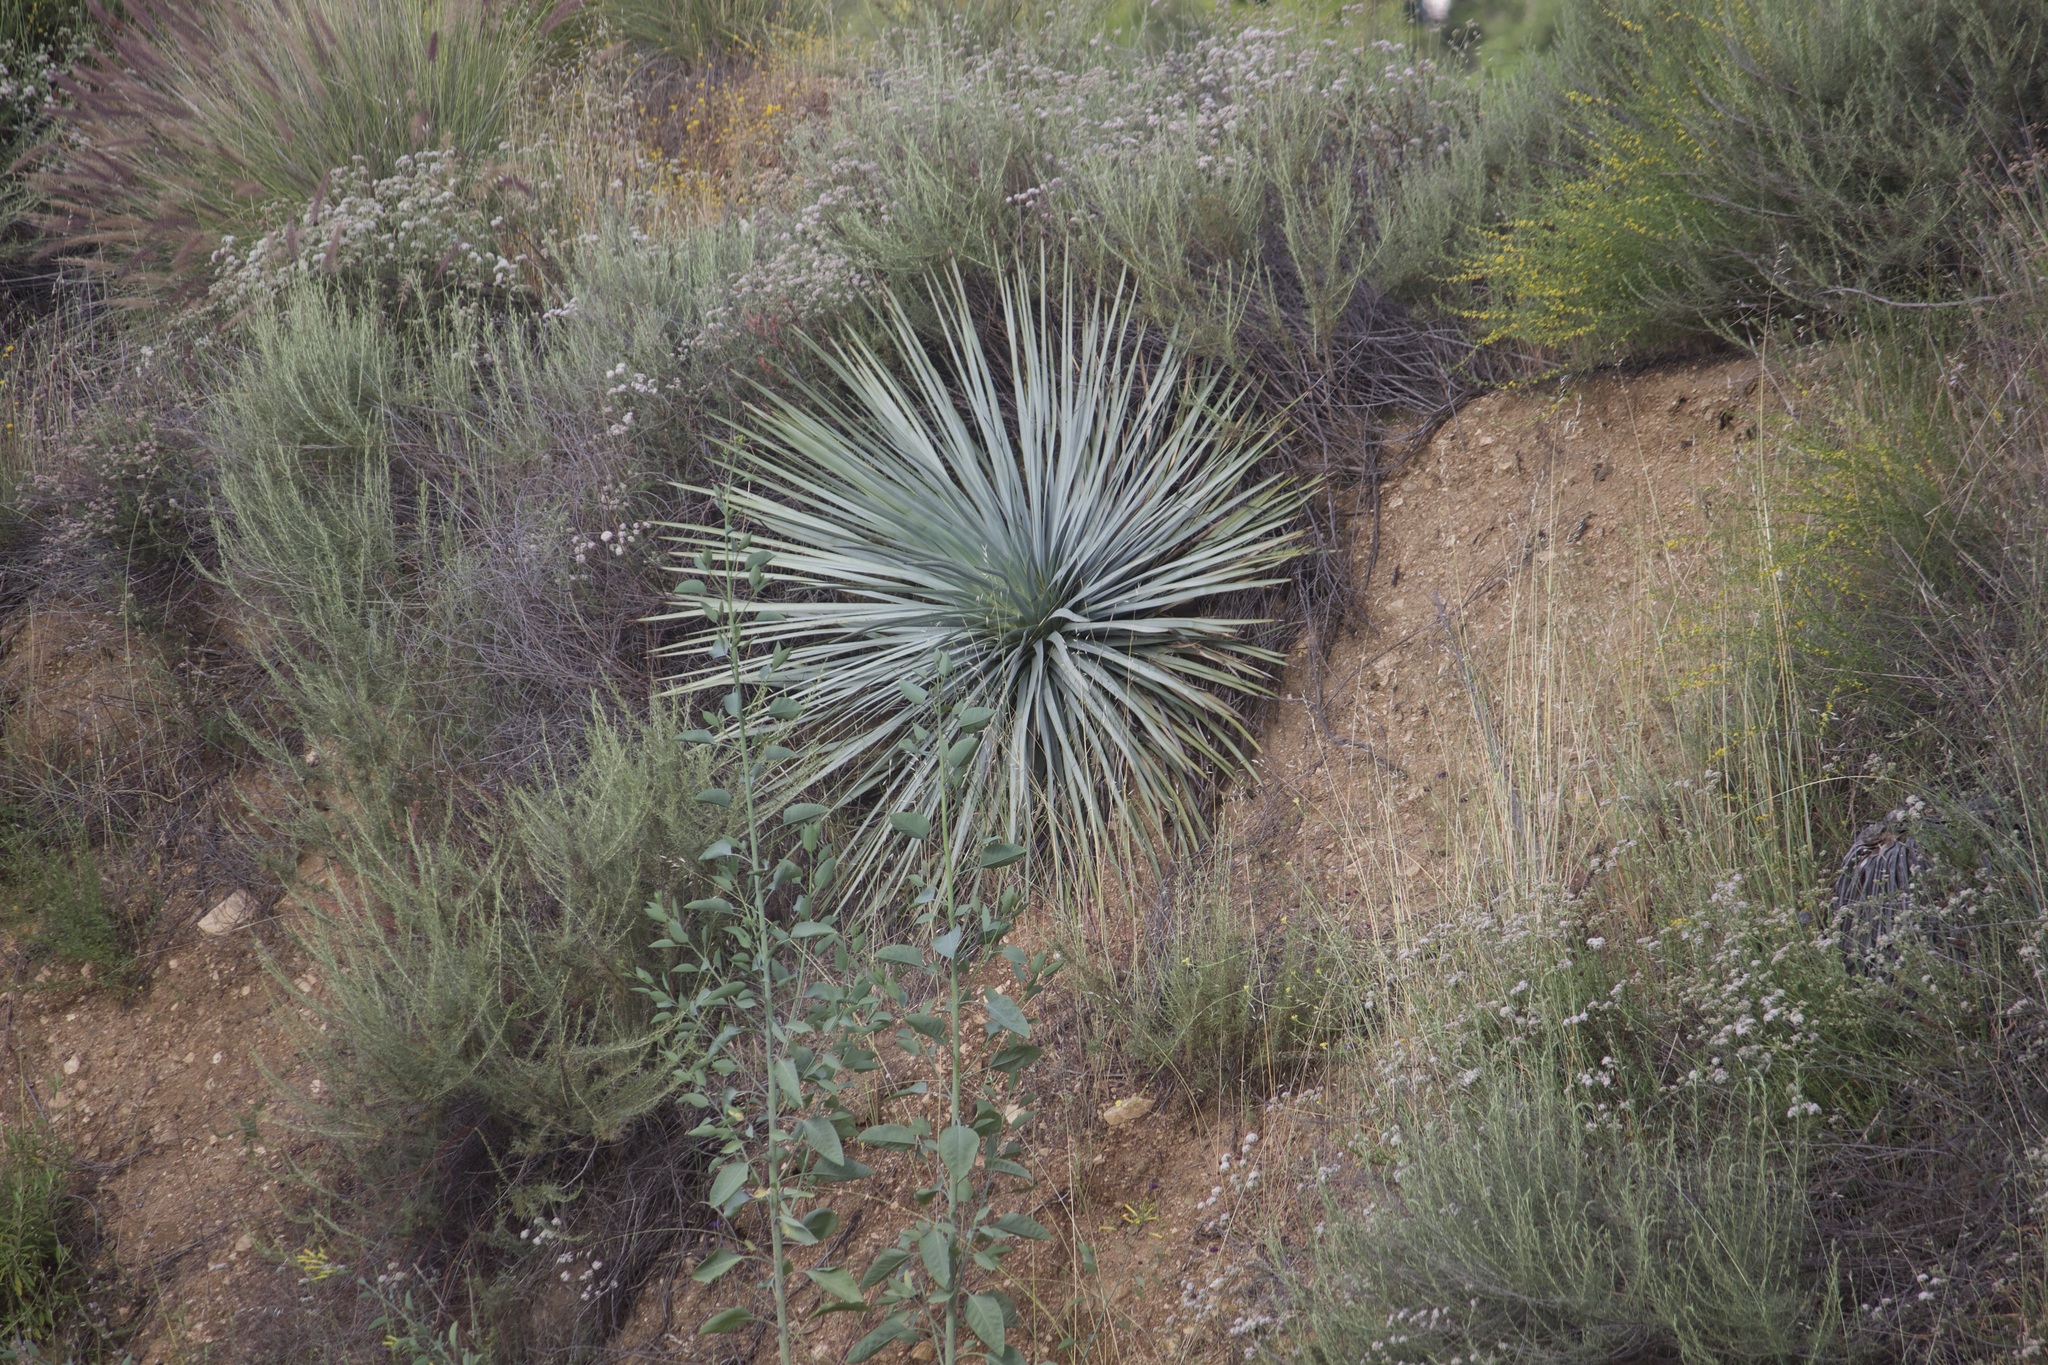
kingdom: Plantae
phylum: Tracheophyta
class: Liliopsida
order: Asparagales
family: Asparagaceae
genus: Hesperoyucca
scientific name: Hesperoyucca whipplei
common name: Our lord's-candle
